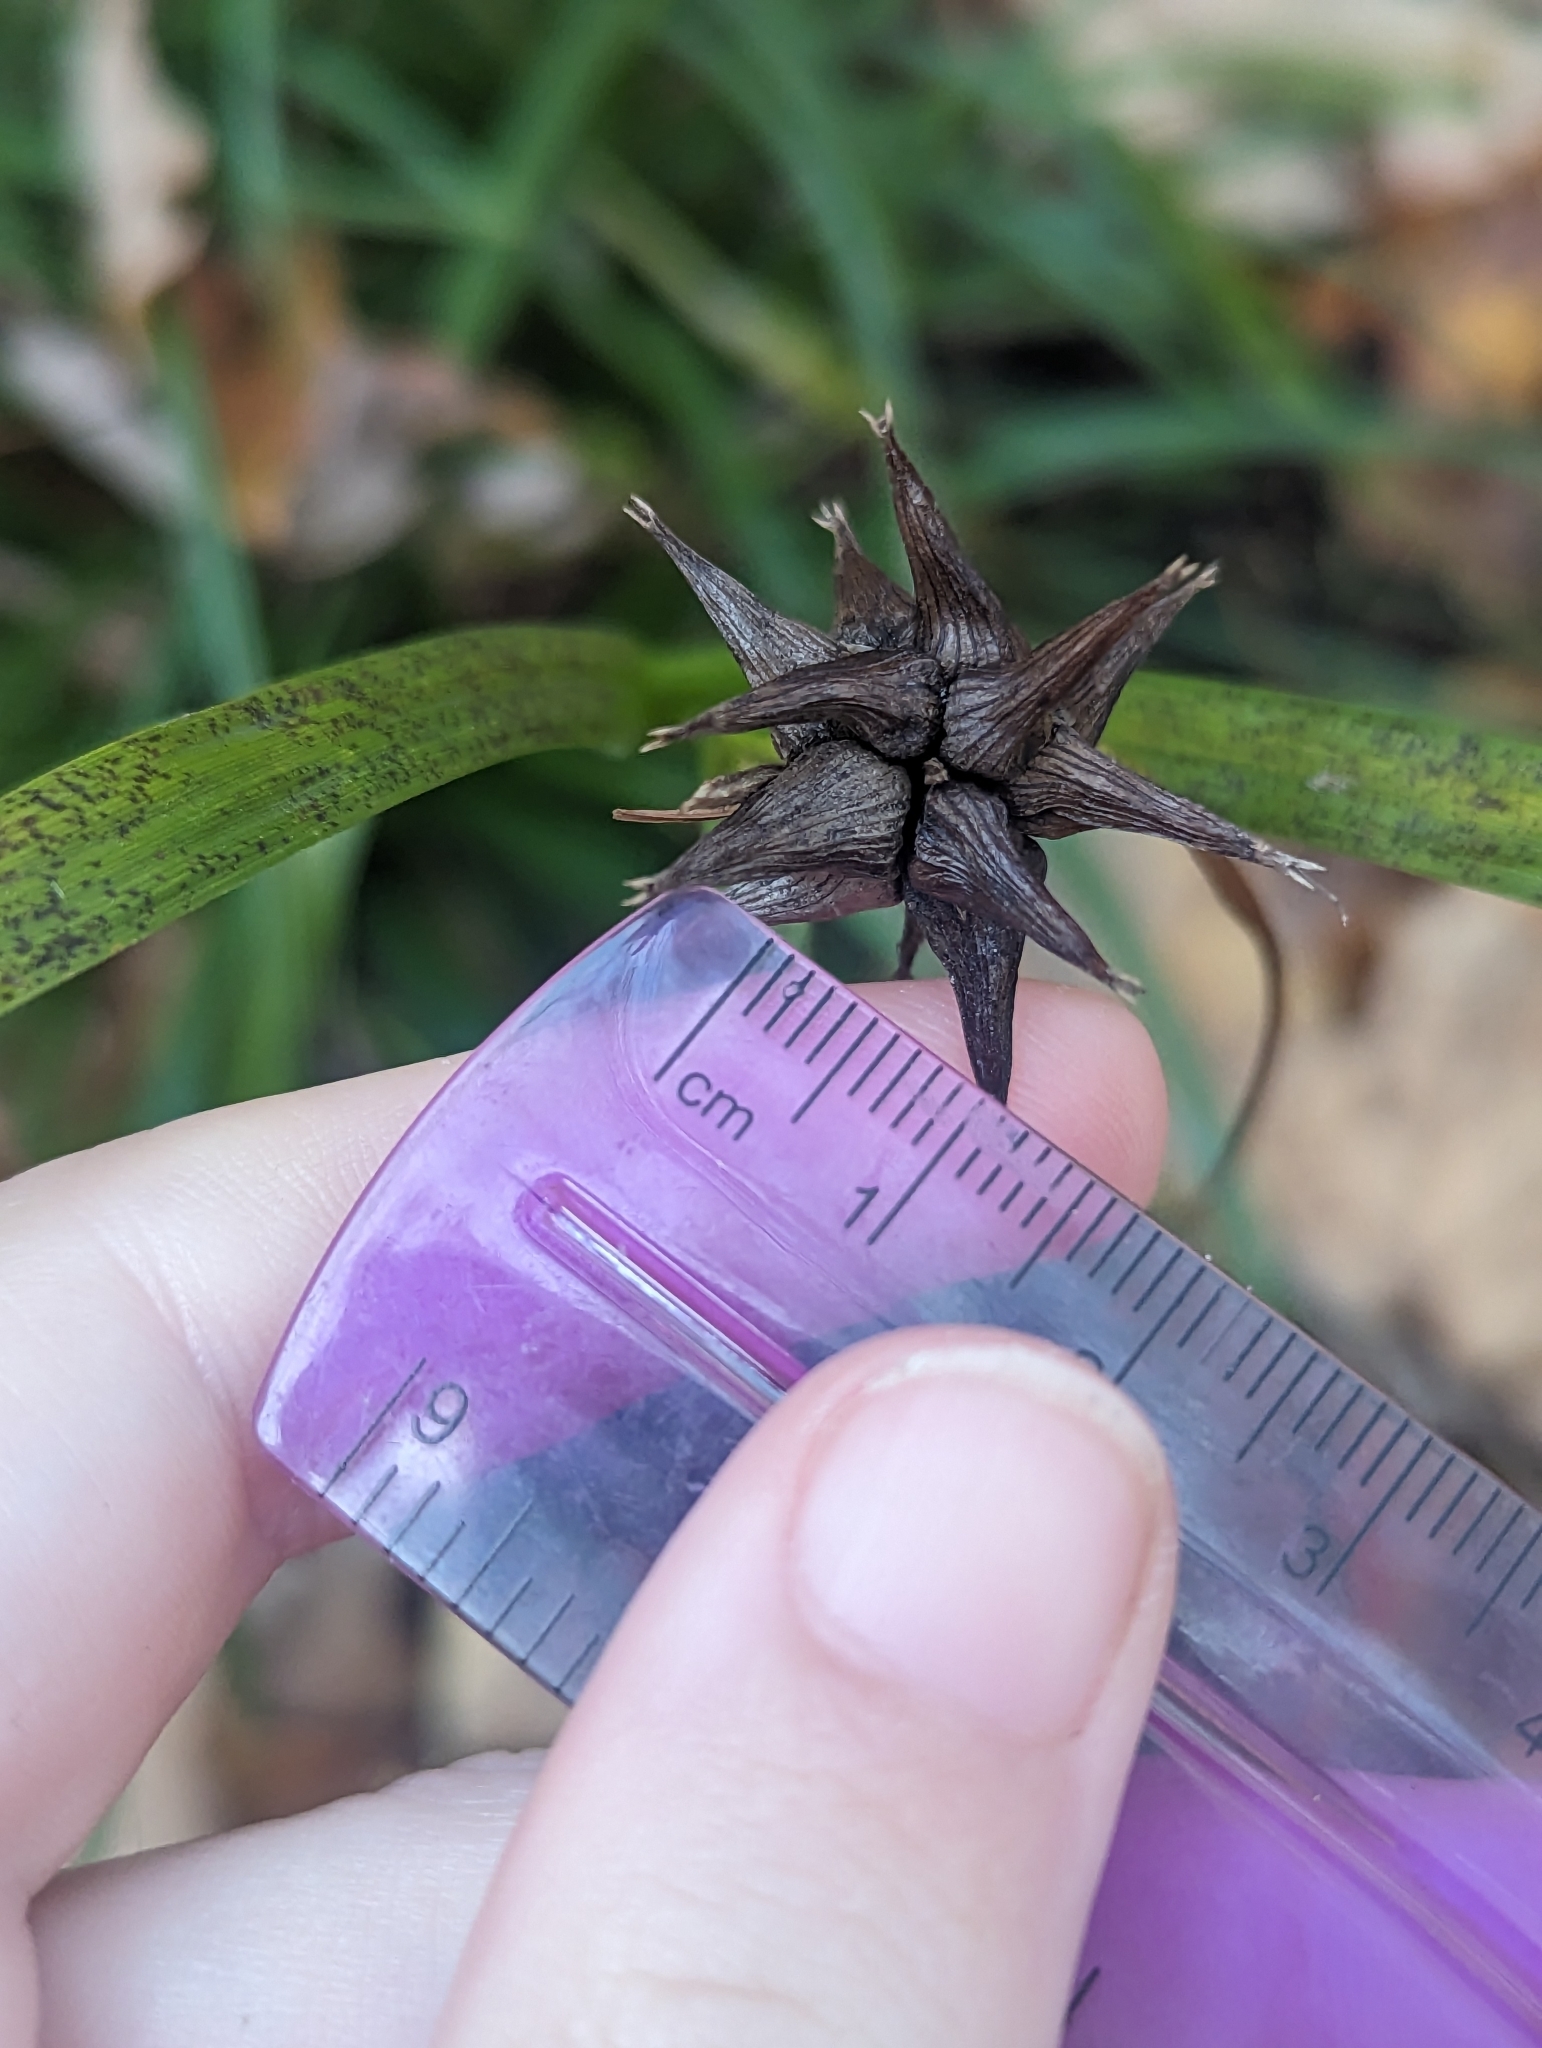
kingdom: Plantae
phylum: Tracheophyta
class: Liliopsida
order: Poales
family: Cyperaceae
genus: Carex
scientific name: Carex grayi
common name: Asa gray's sedge
